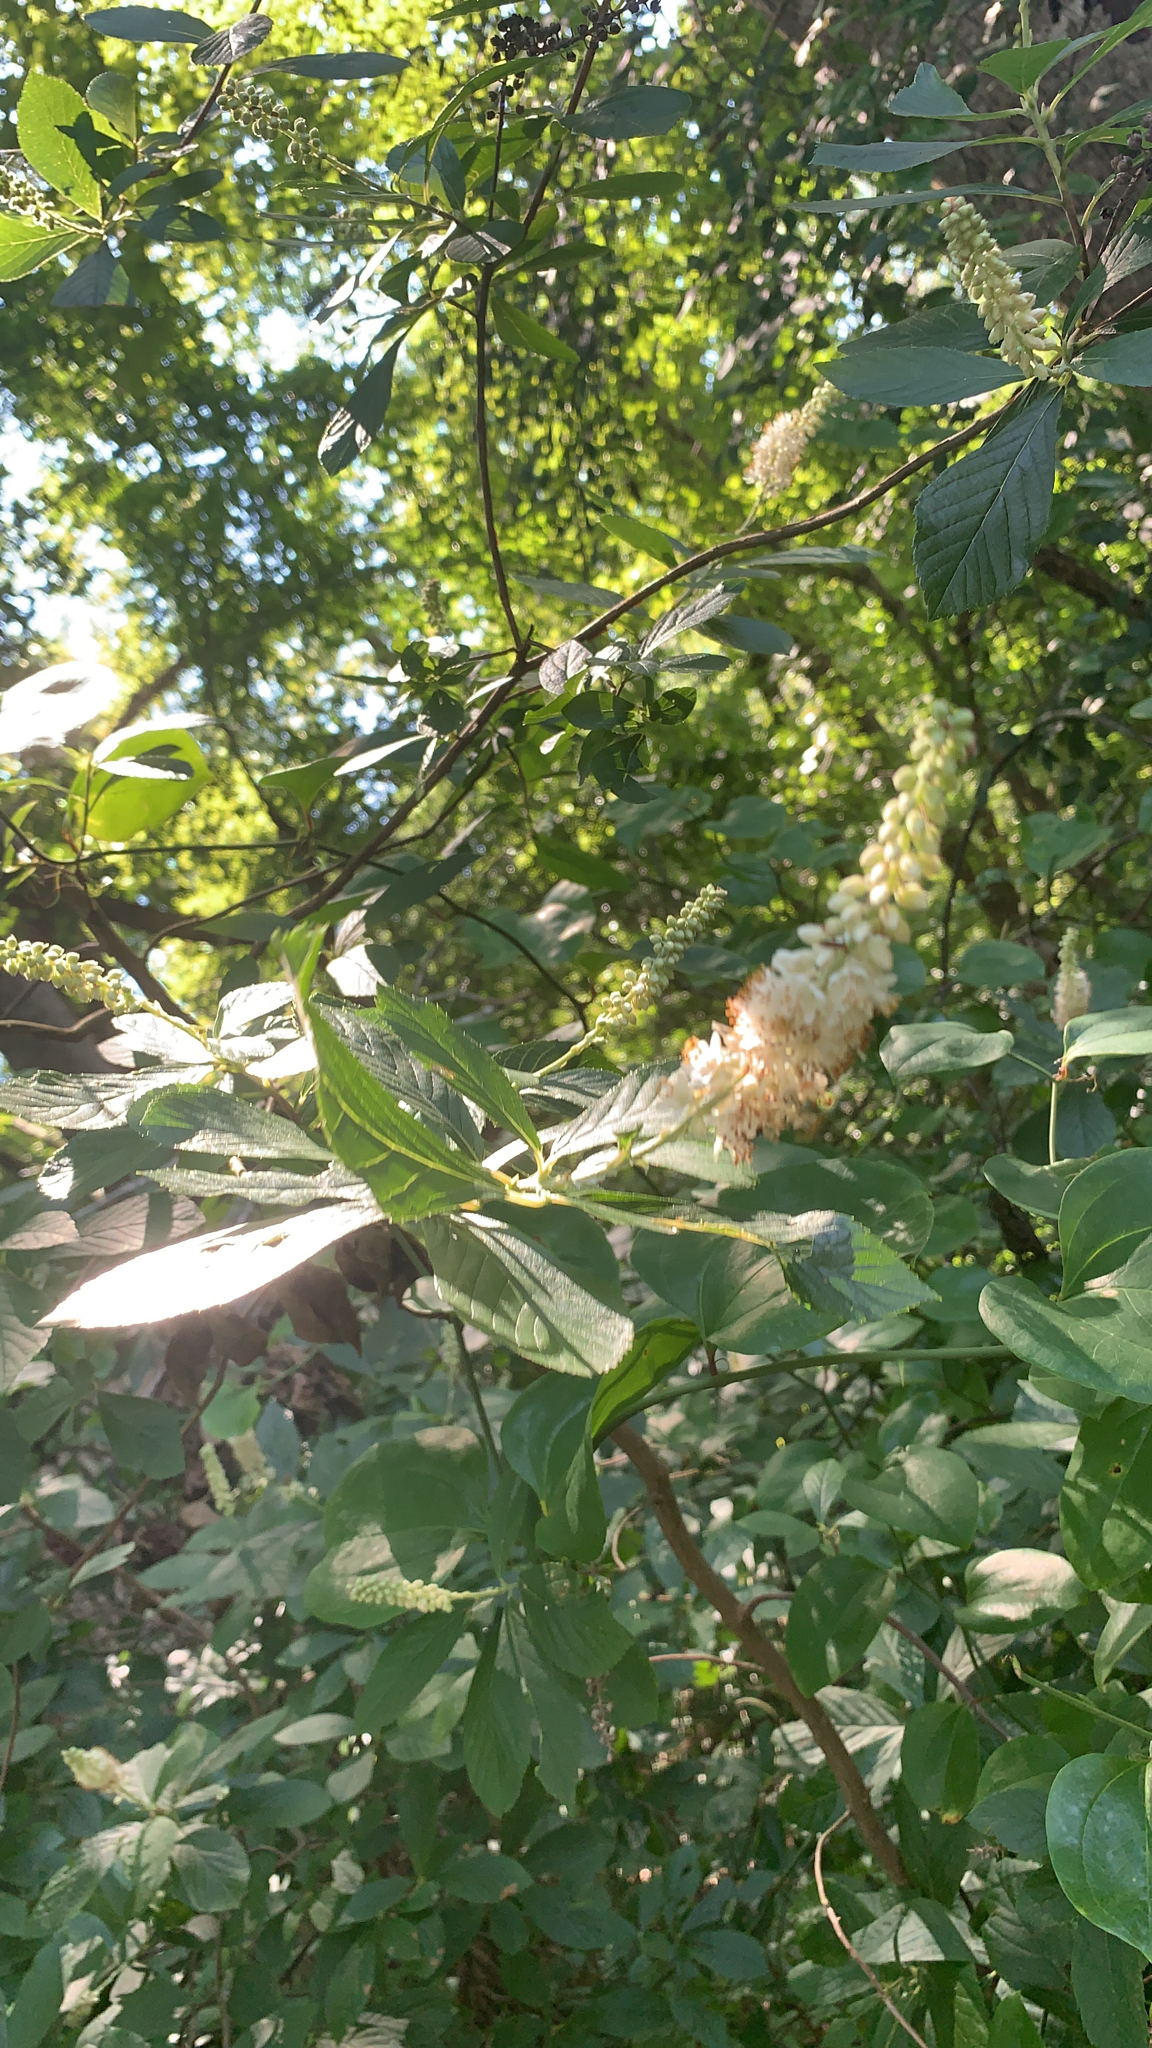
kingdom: Plantae
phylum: Tracheophyta
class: Magnoliopsida
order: Ericales
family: Clethraceae
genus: Clethra
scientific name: Clethra alnifolia
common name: Sweet pepperbush
